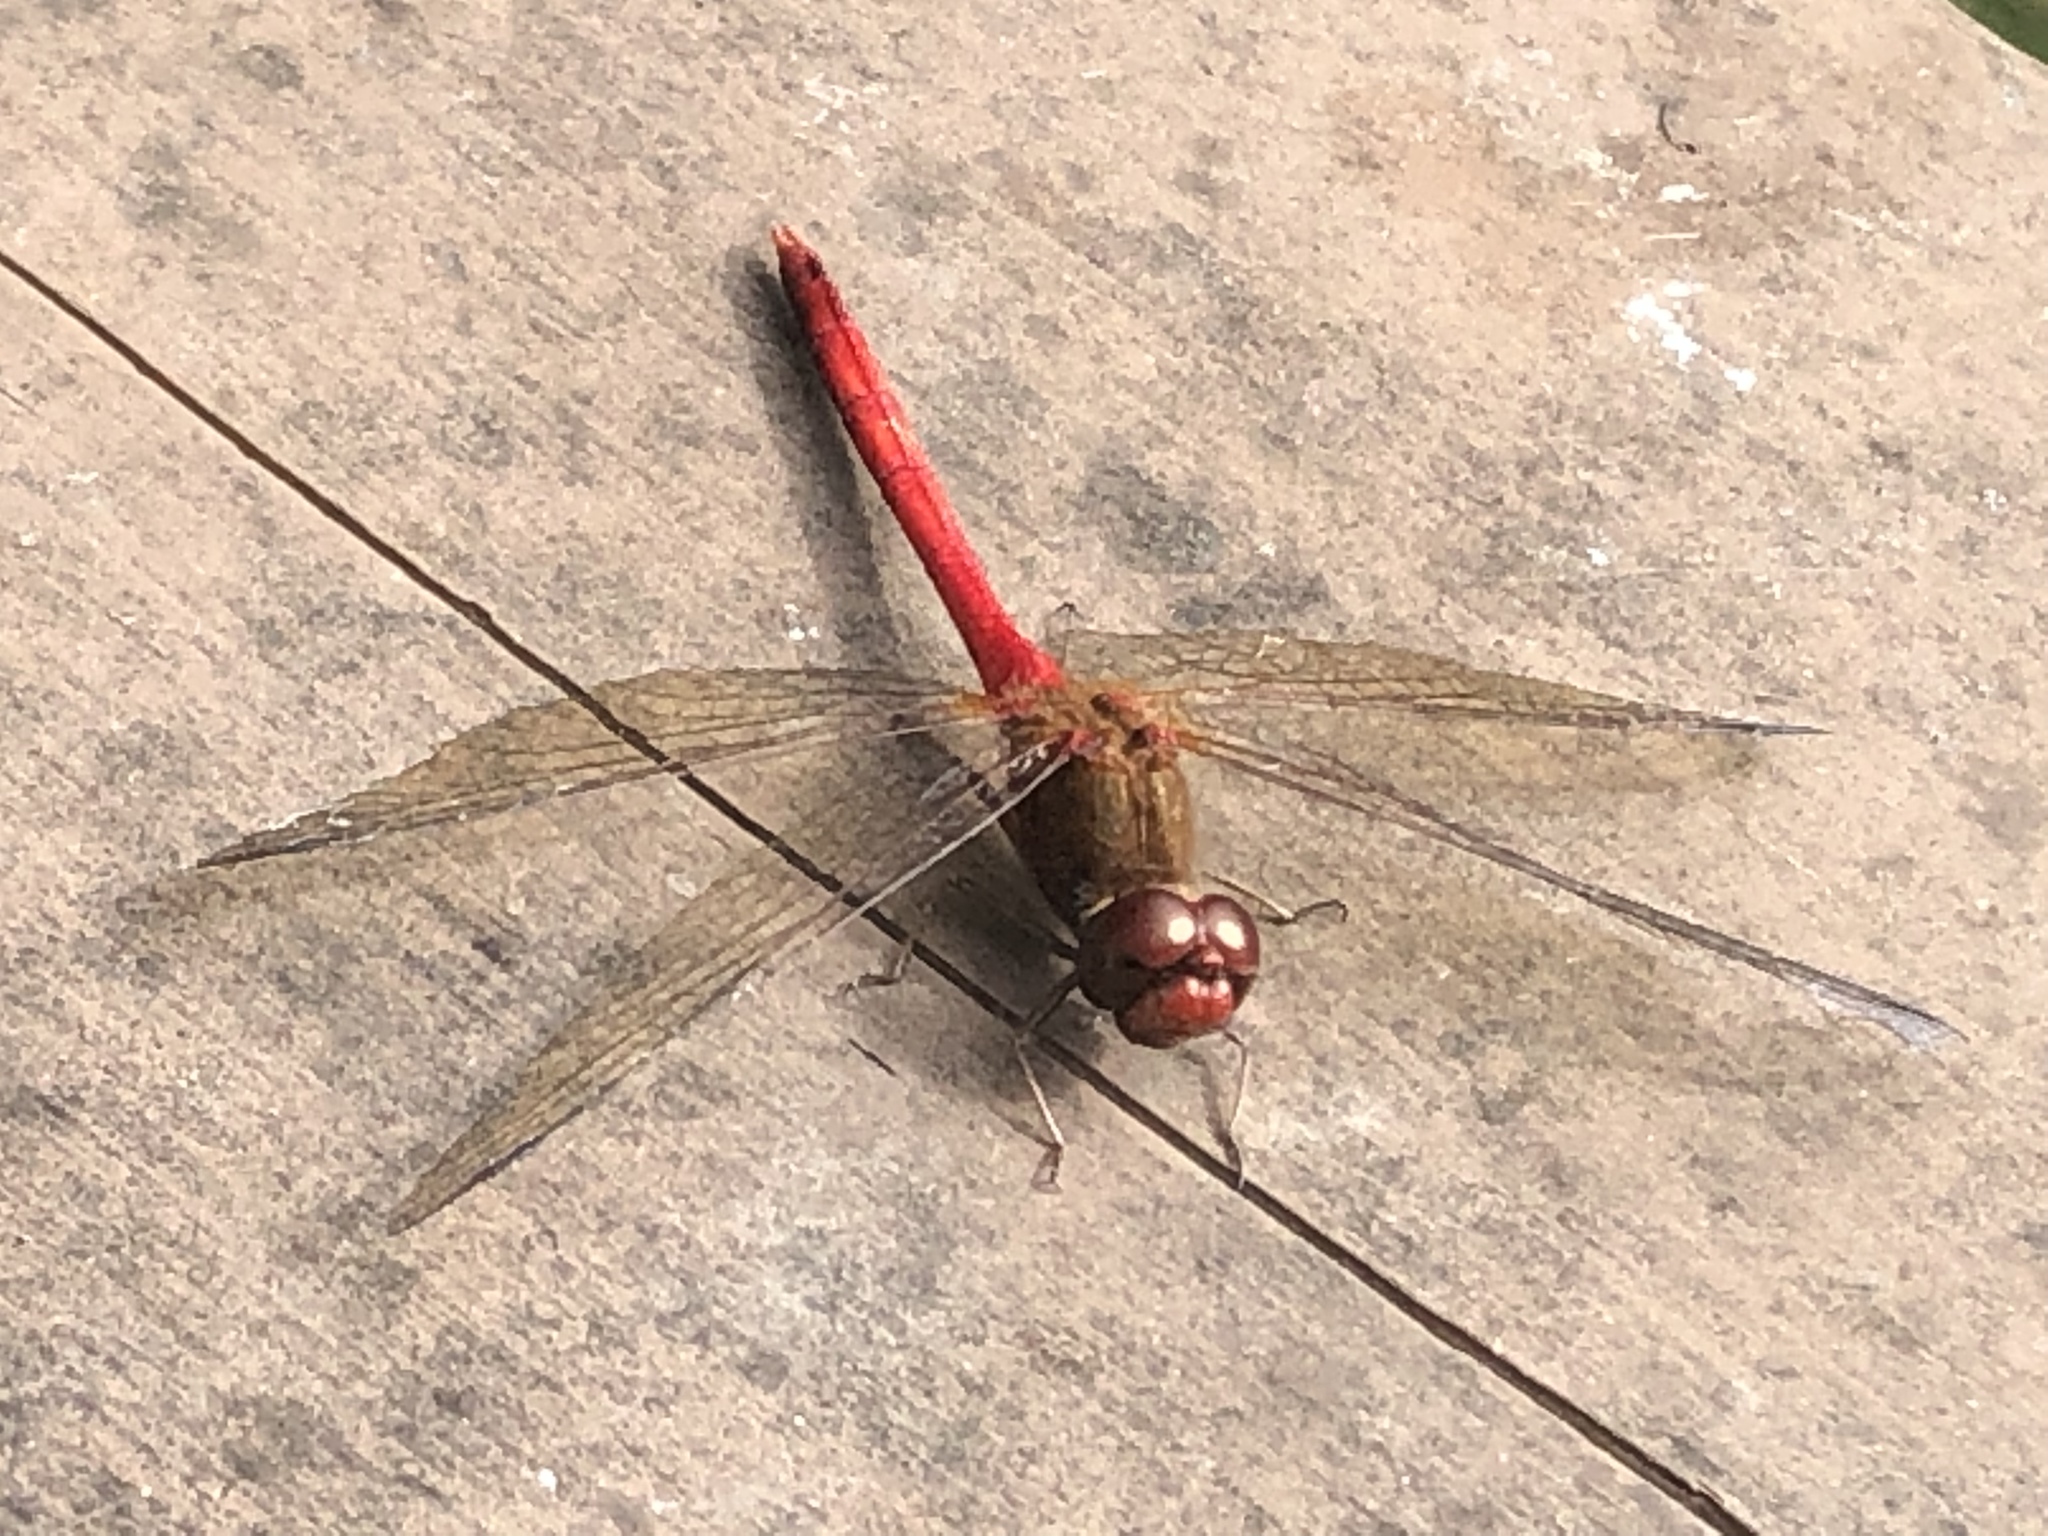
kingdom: Animalia
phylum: Arthropoda
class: Insecta
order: Odonata
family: Libellulidae
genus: Sympetrum
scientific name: Sympetrum vicinum
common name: Autumn meadowhawk
